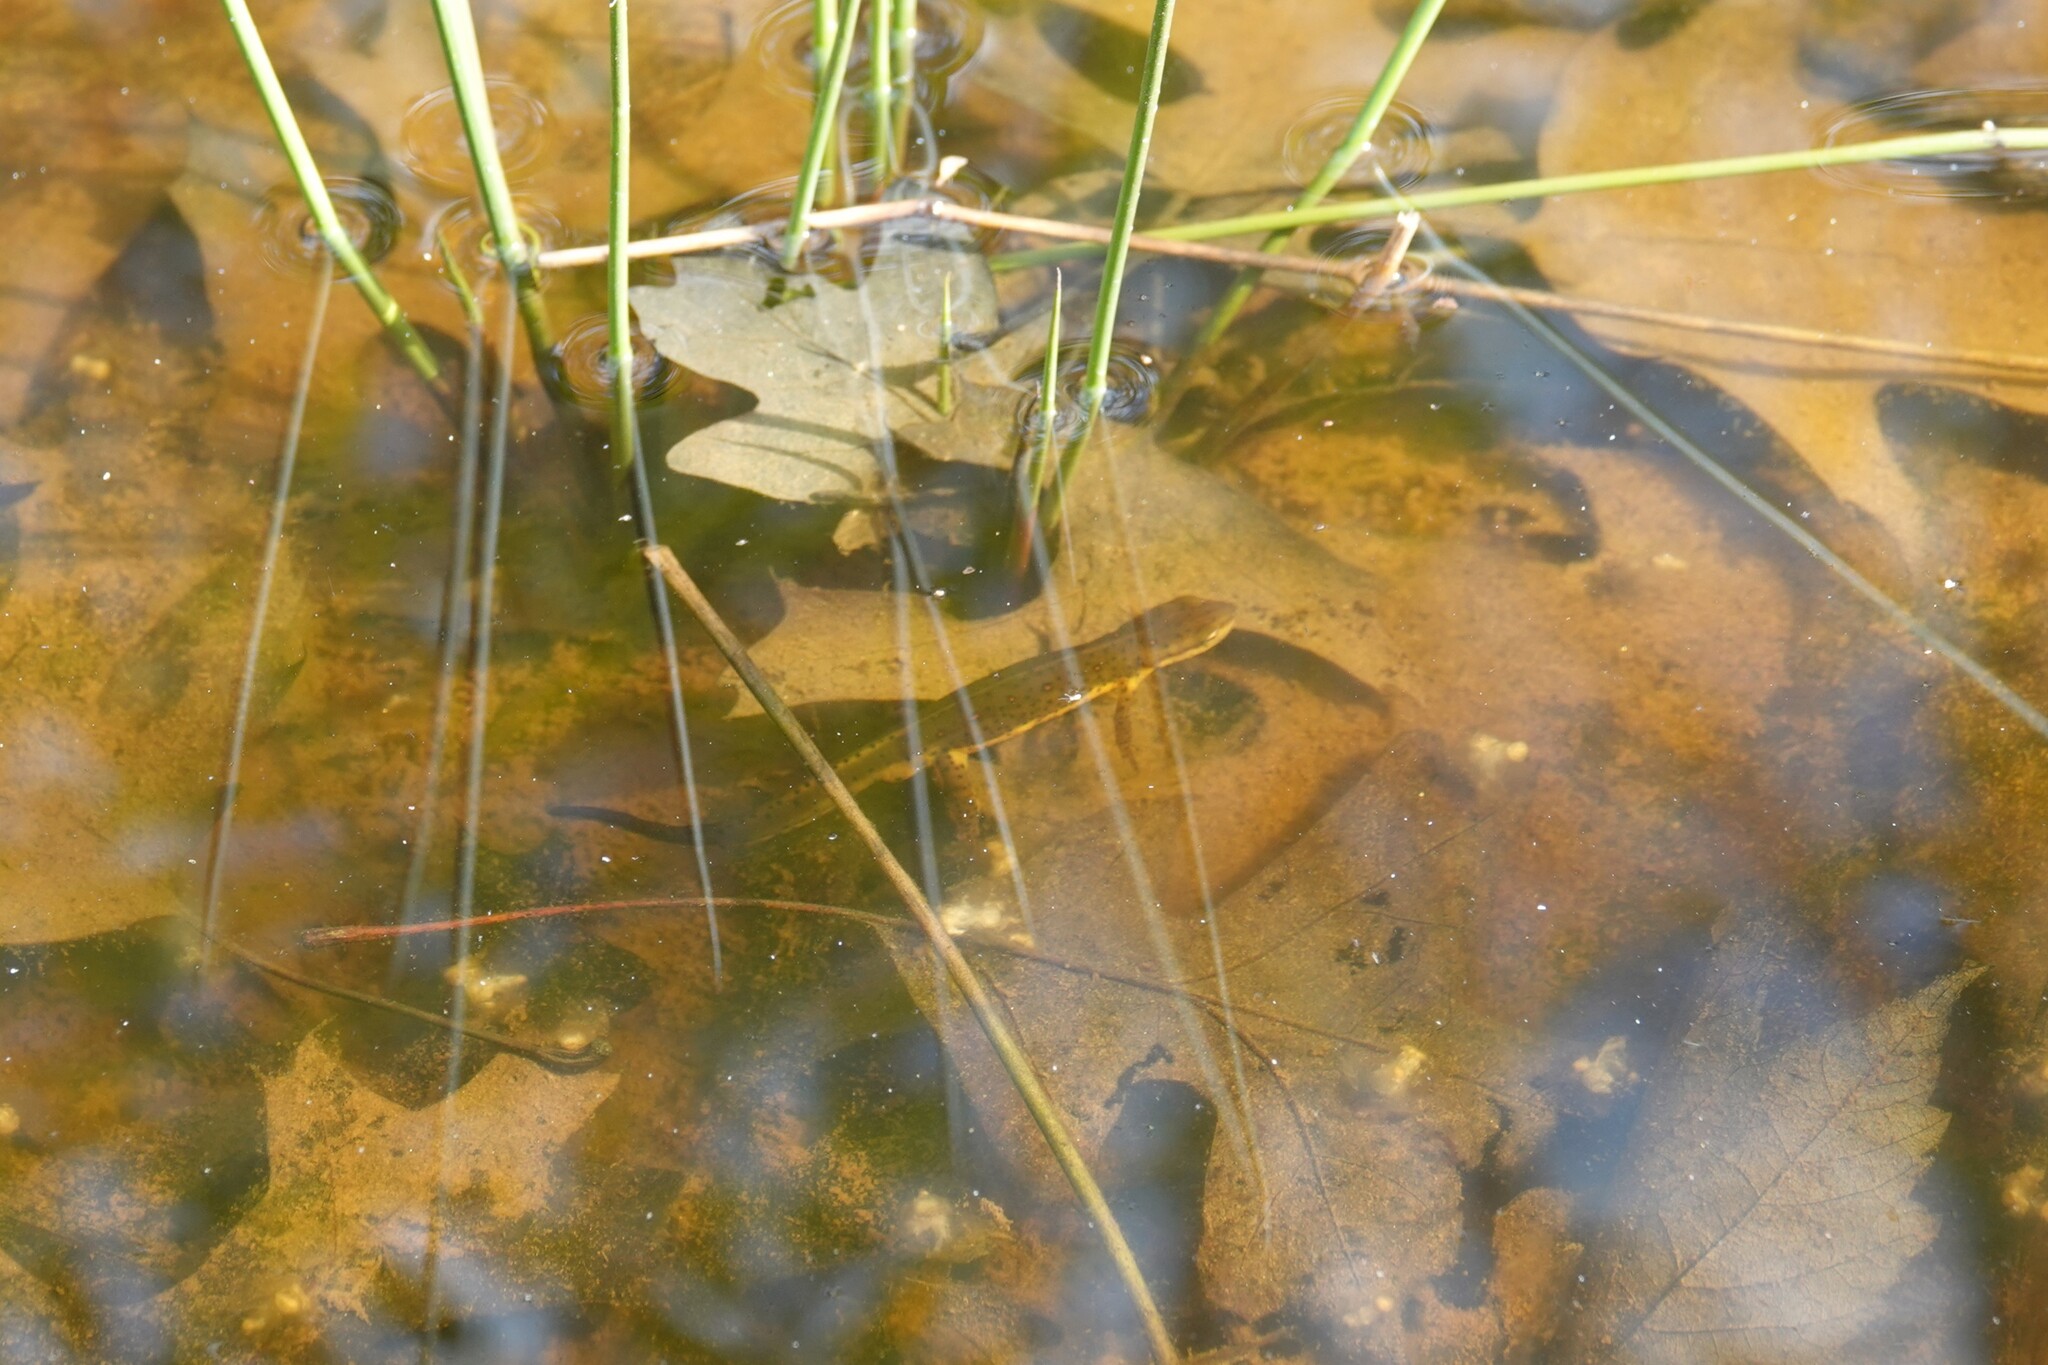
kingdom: Animalia
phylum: Chordata
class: Amphibia
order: Caudata
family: Salamandridae
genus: Notophthalmus
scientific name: Notophthalmus viridescens
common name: Eastern newt
